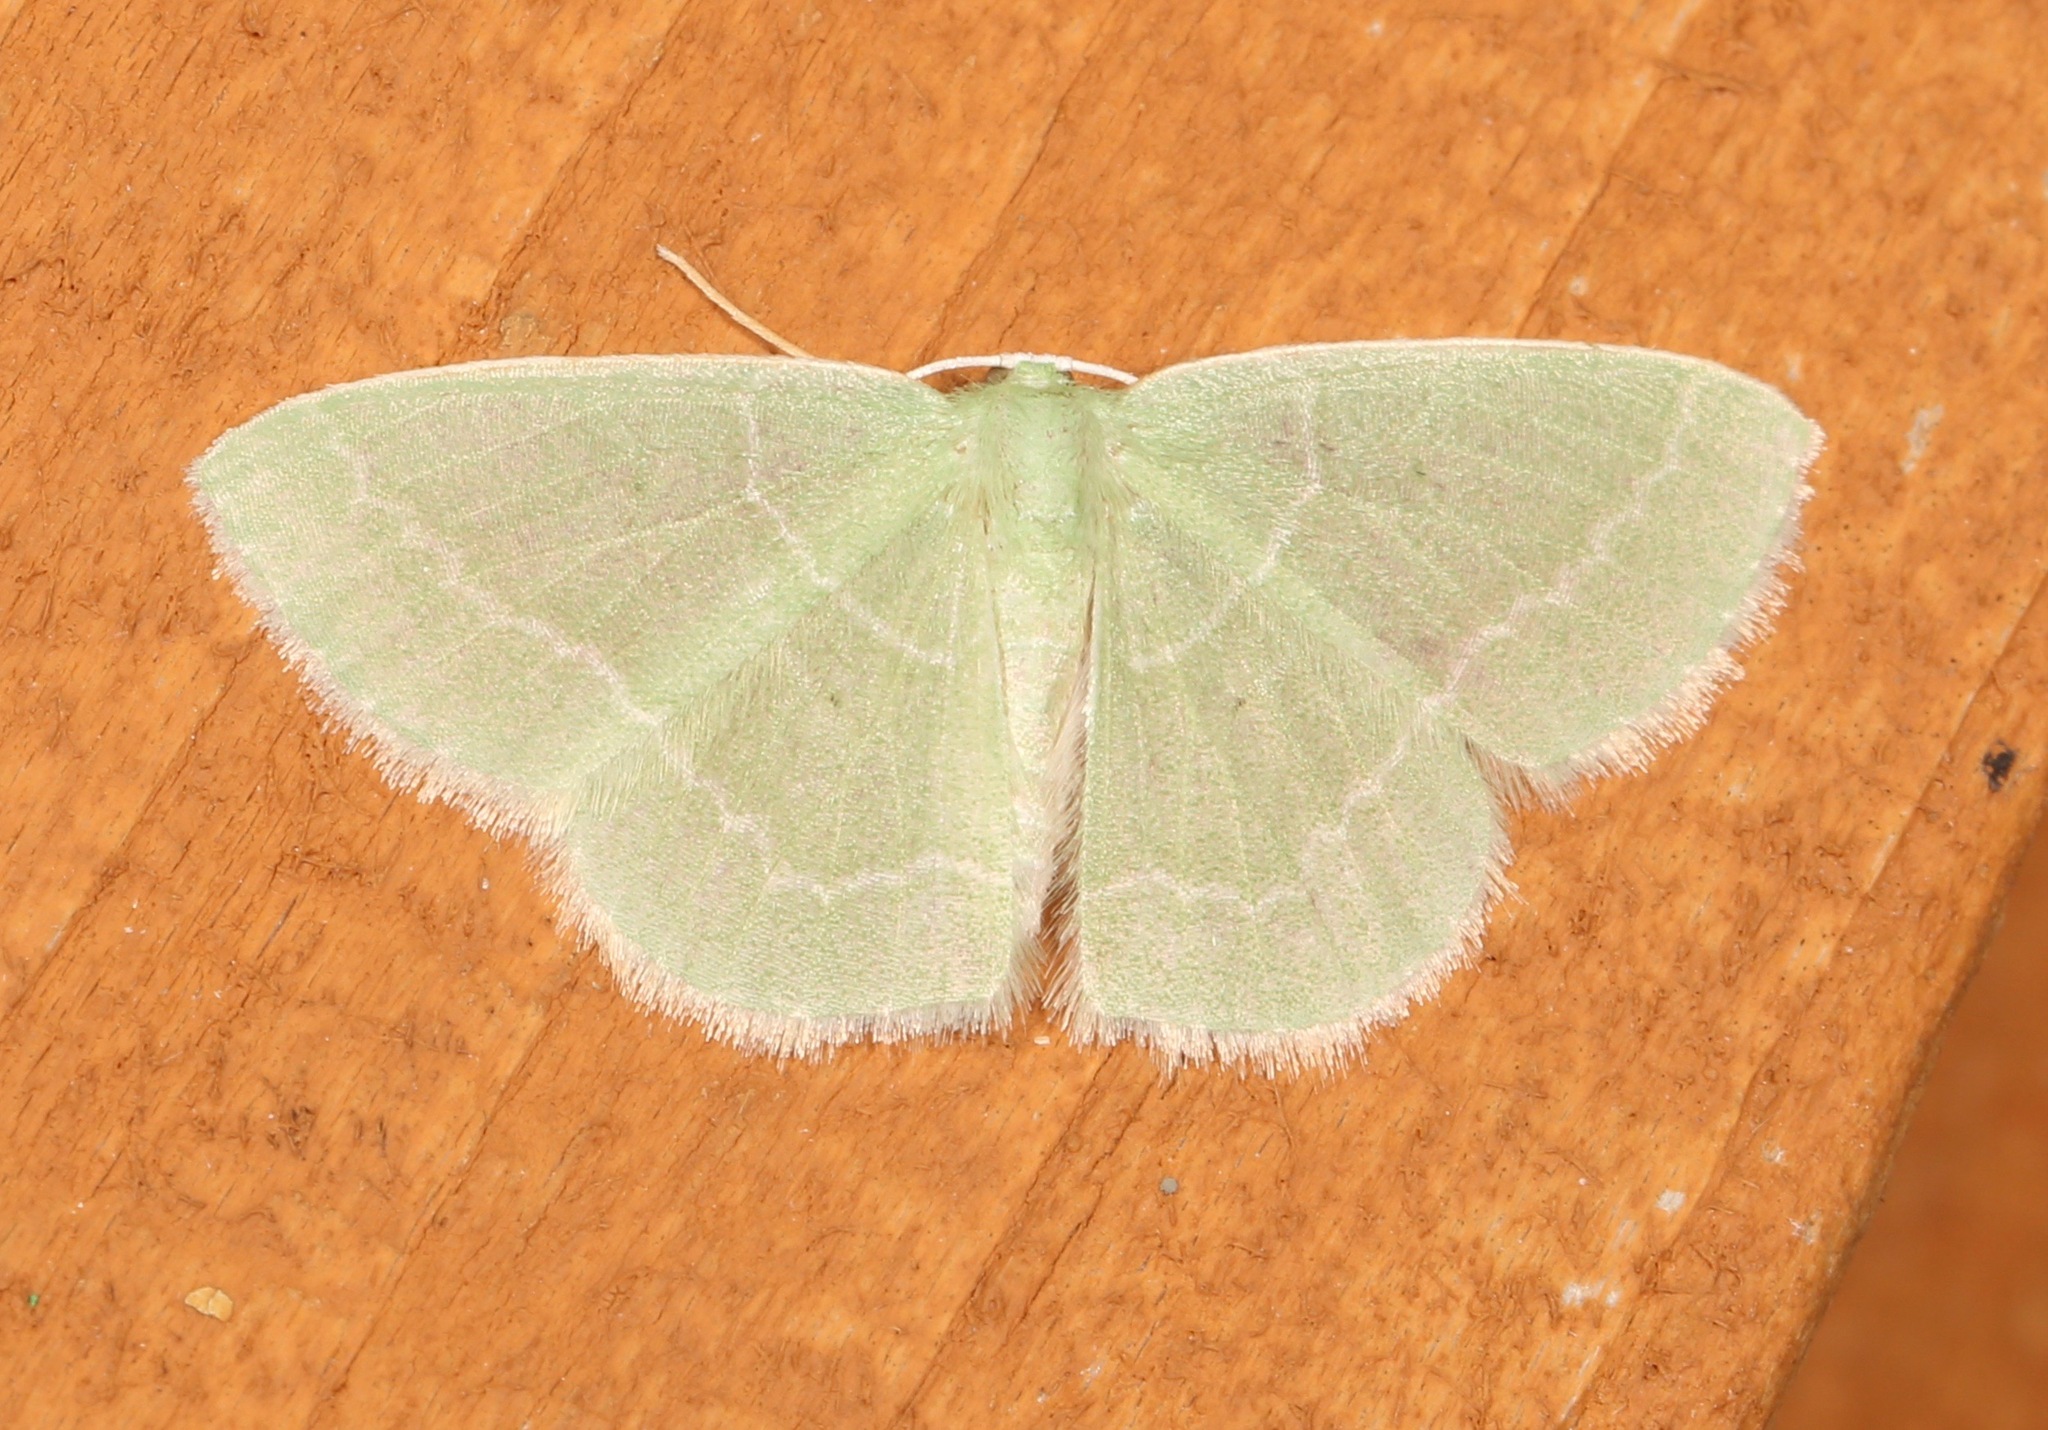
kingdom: Animalia
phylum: Arthropoda
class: Insecta
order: Lepidoptera
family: Geometridae
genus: Nemoria
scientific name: Nemoria elfa
